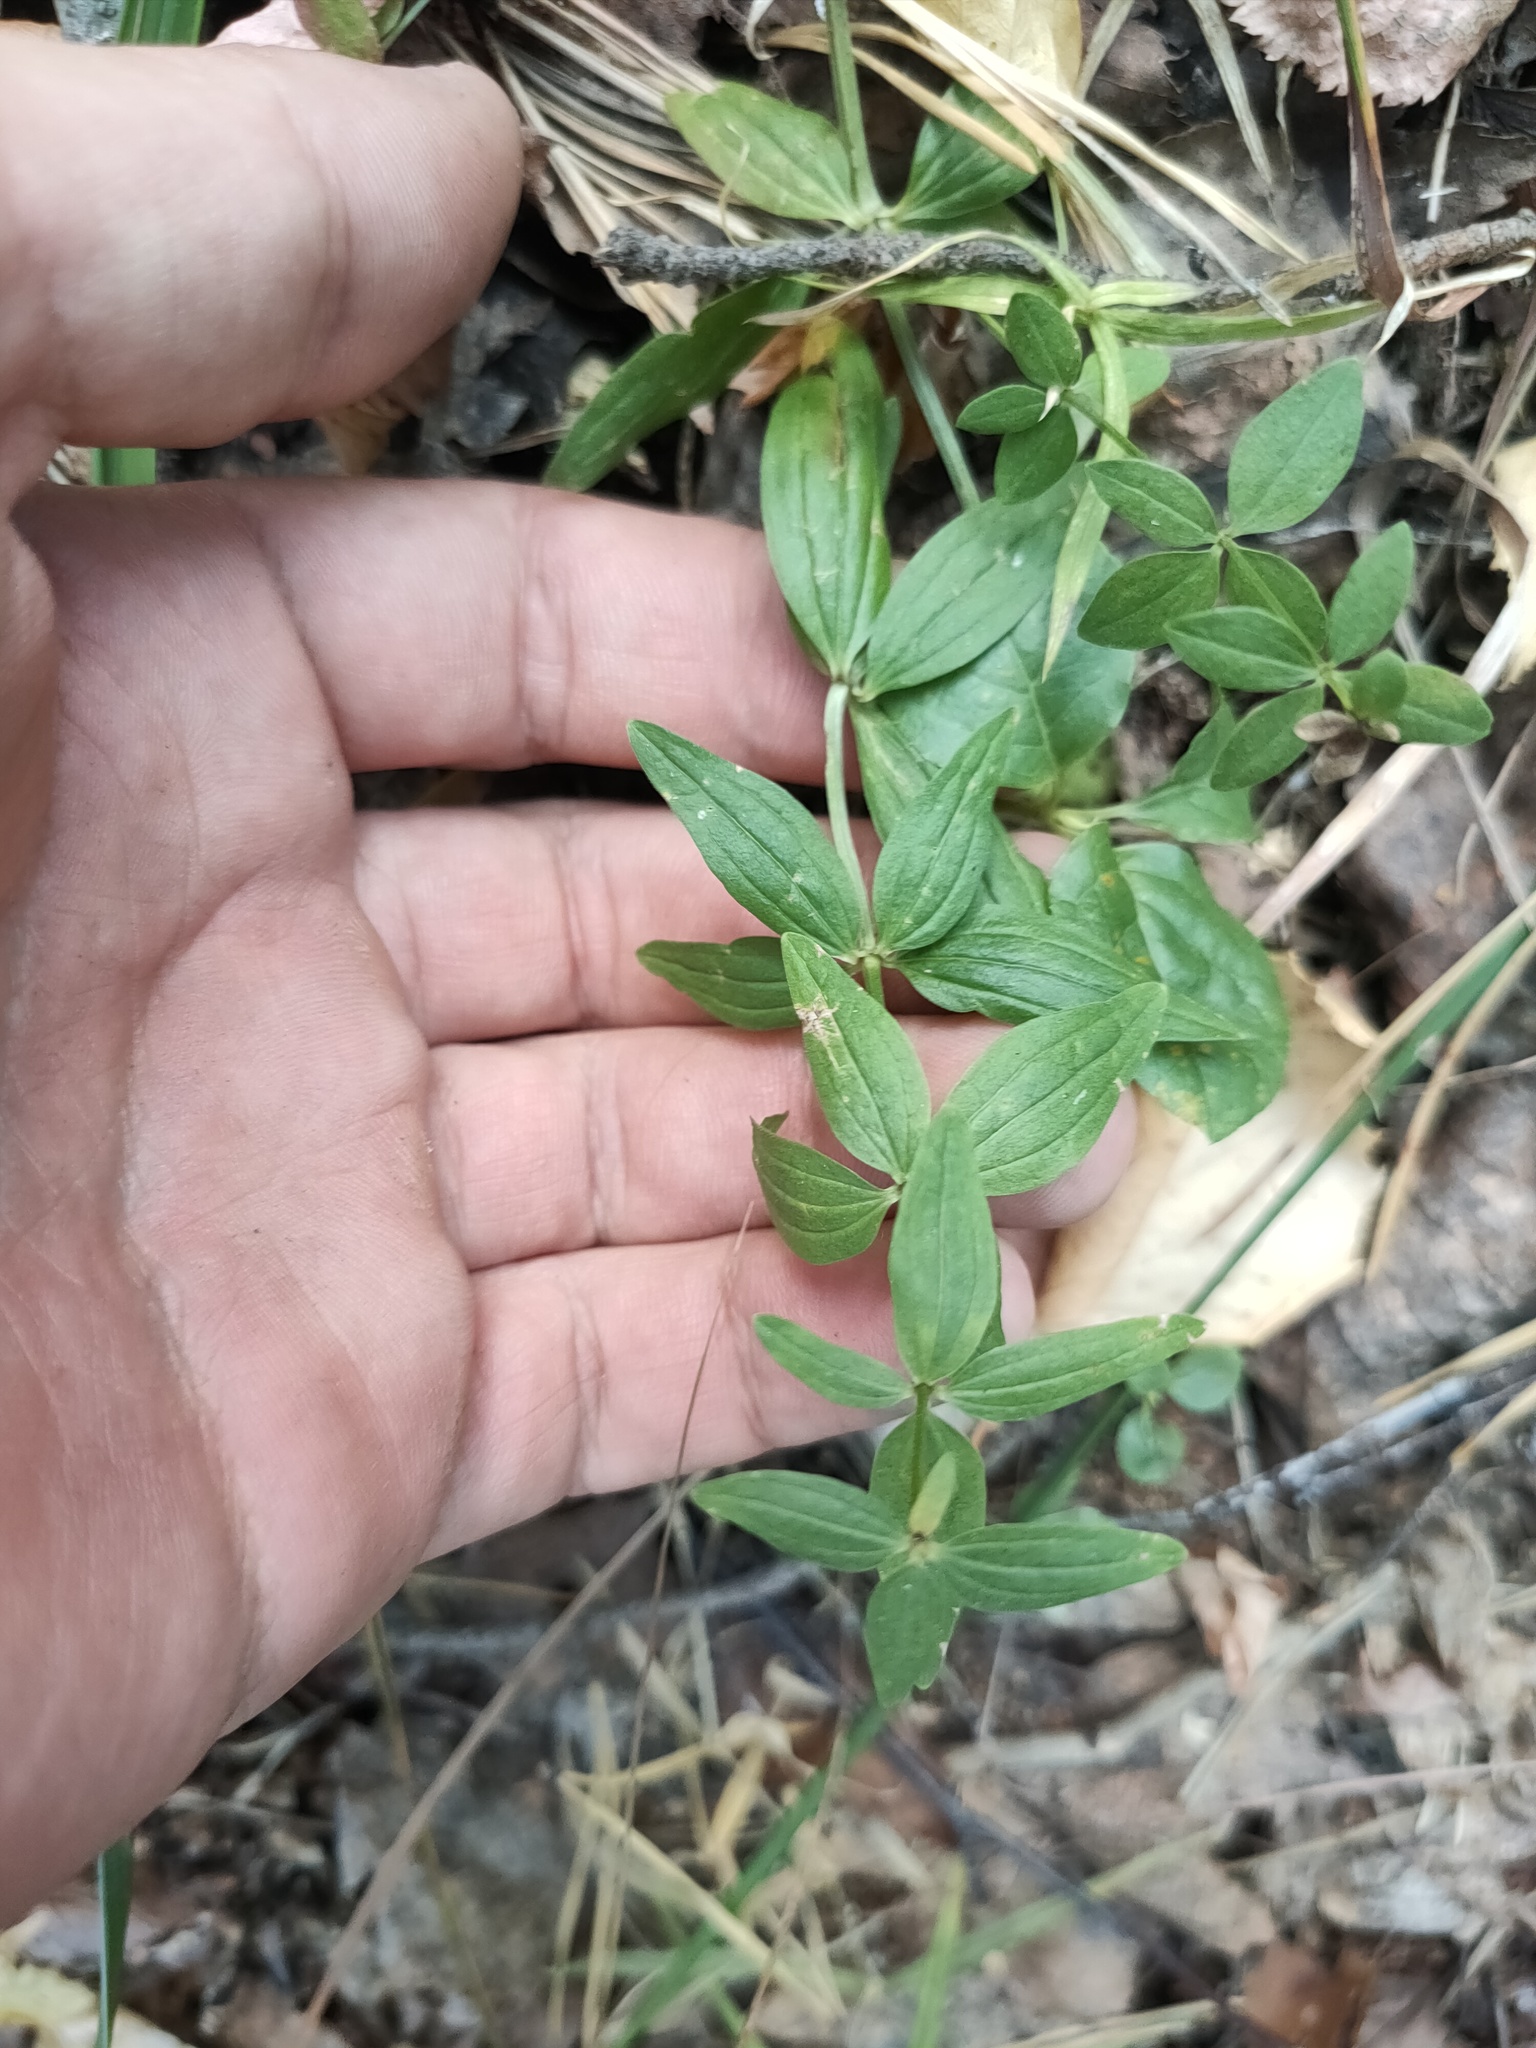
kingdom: Plantae
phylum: Tracheophyta
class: Magnoliopsida
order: Gentianales
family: Rubiaceae
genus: Galium
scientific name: Galium boreale
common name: Northern bedstraw
